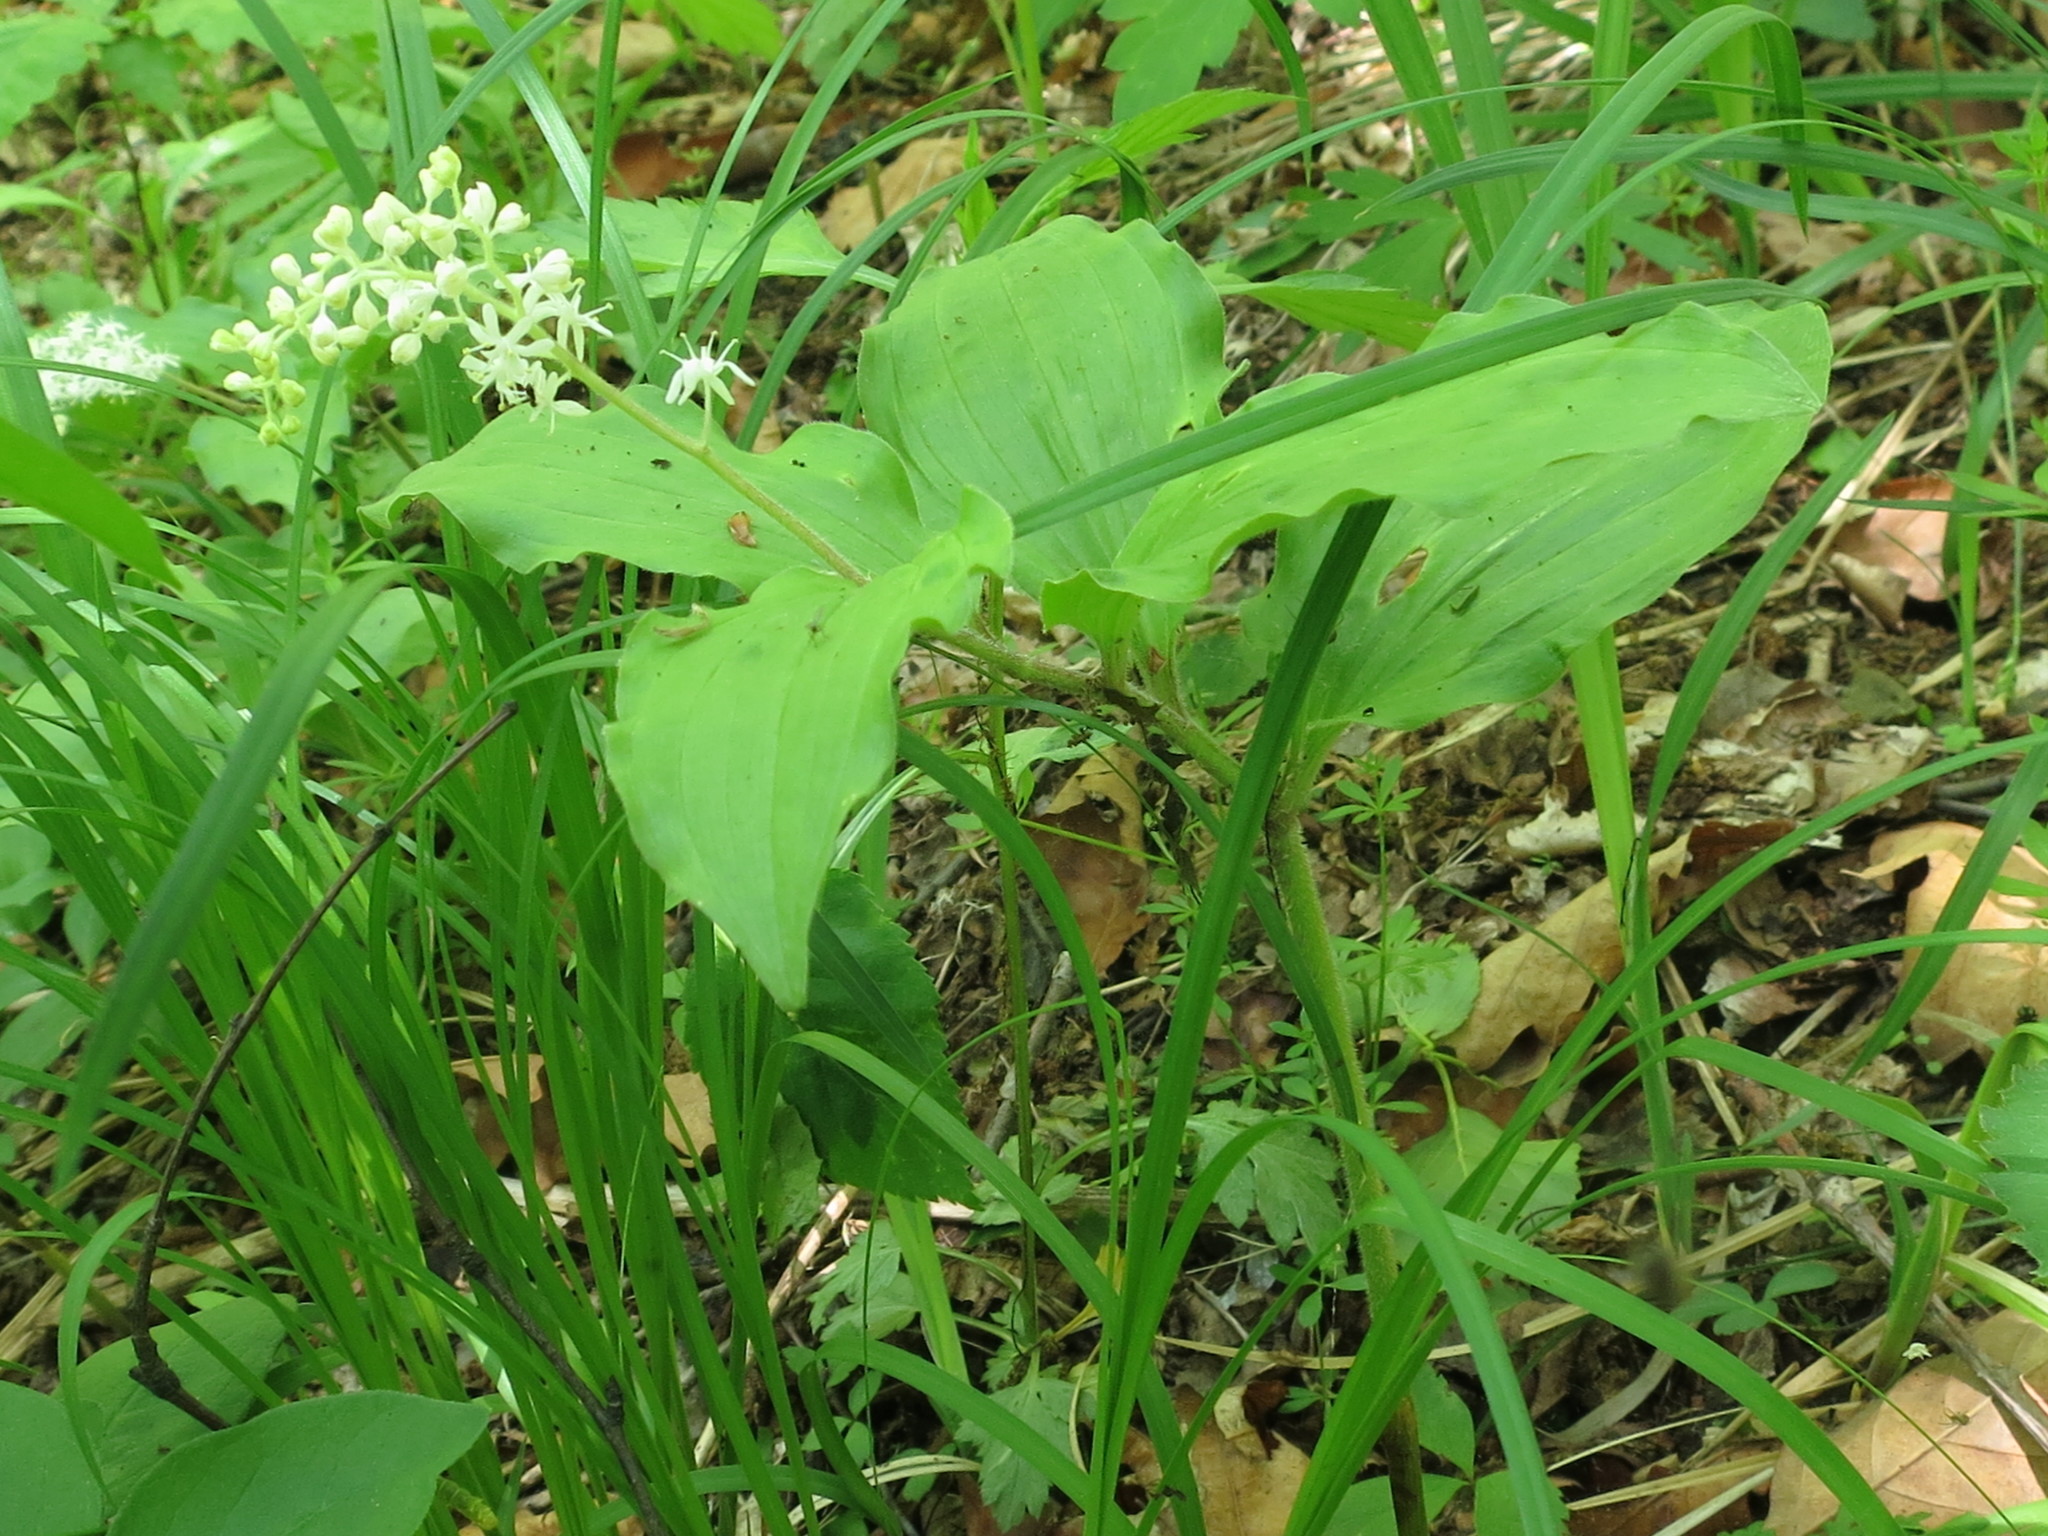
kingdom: Plantae
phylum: Tracheophyta
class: Liliopsida
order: Asparagales
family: Asparagaceae
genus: Maianthemum
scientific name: Maianthemum japonicum
